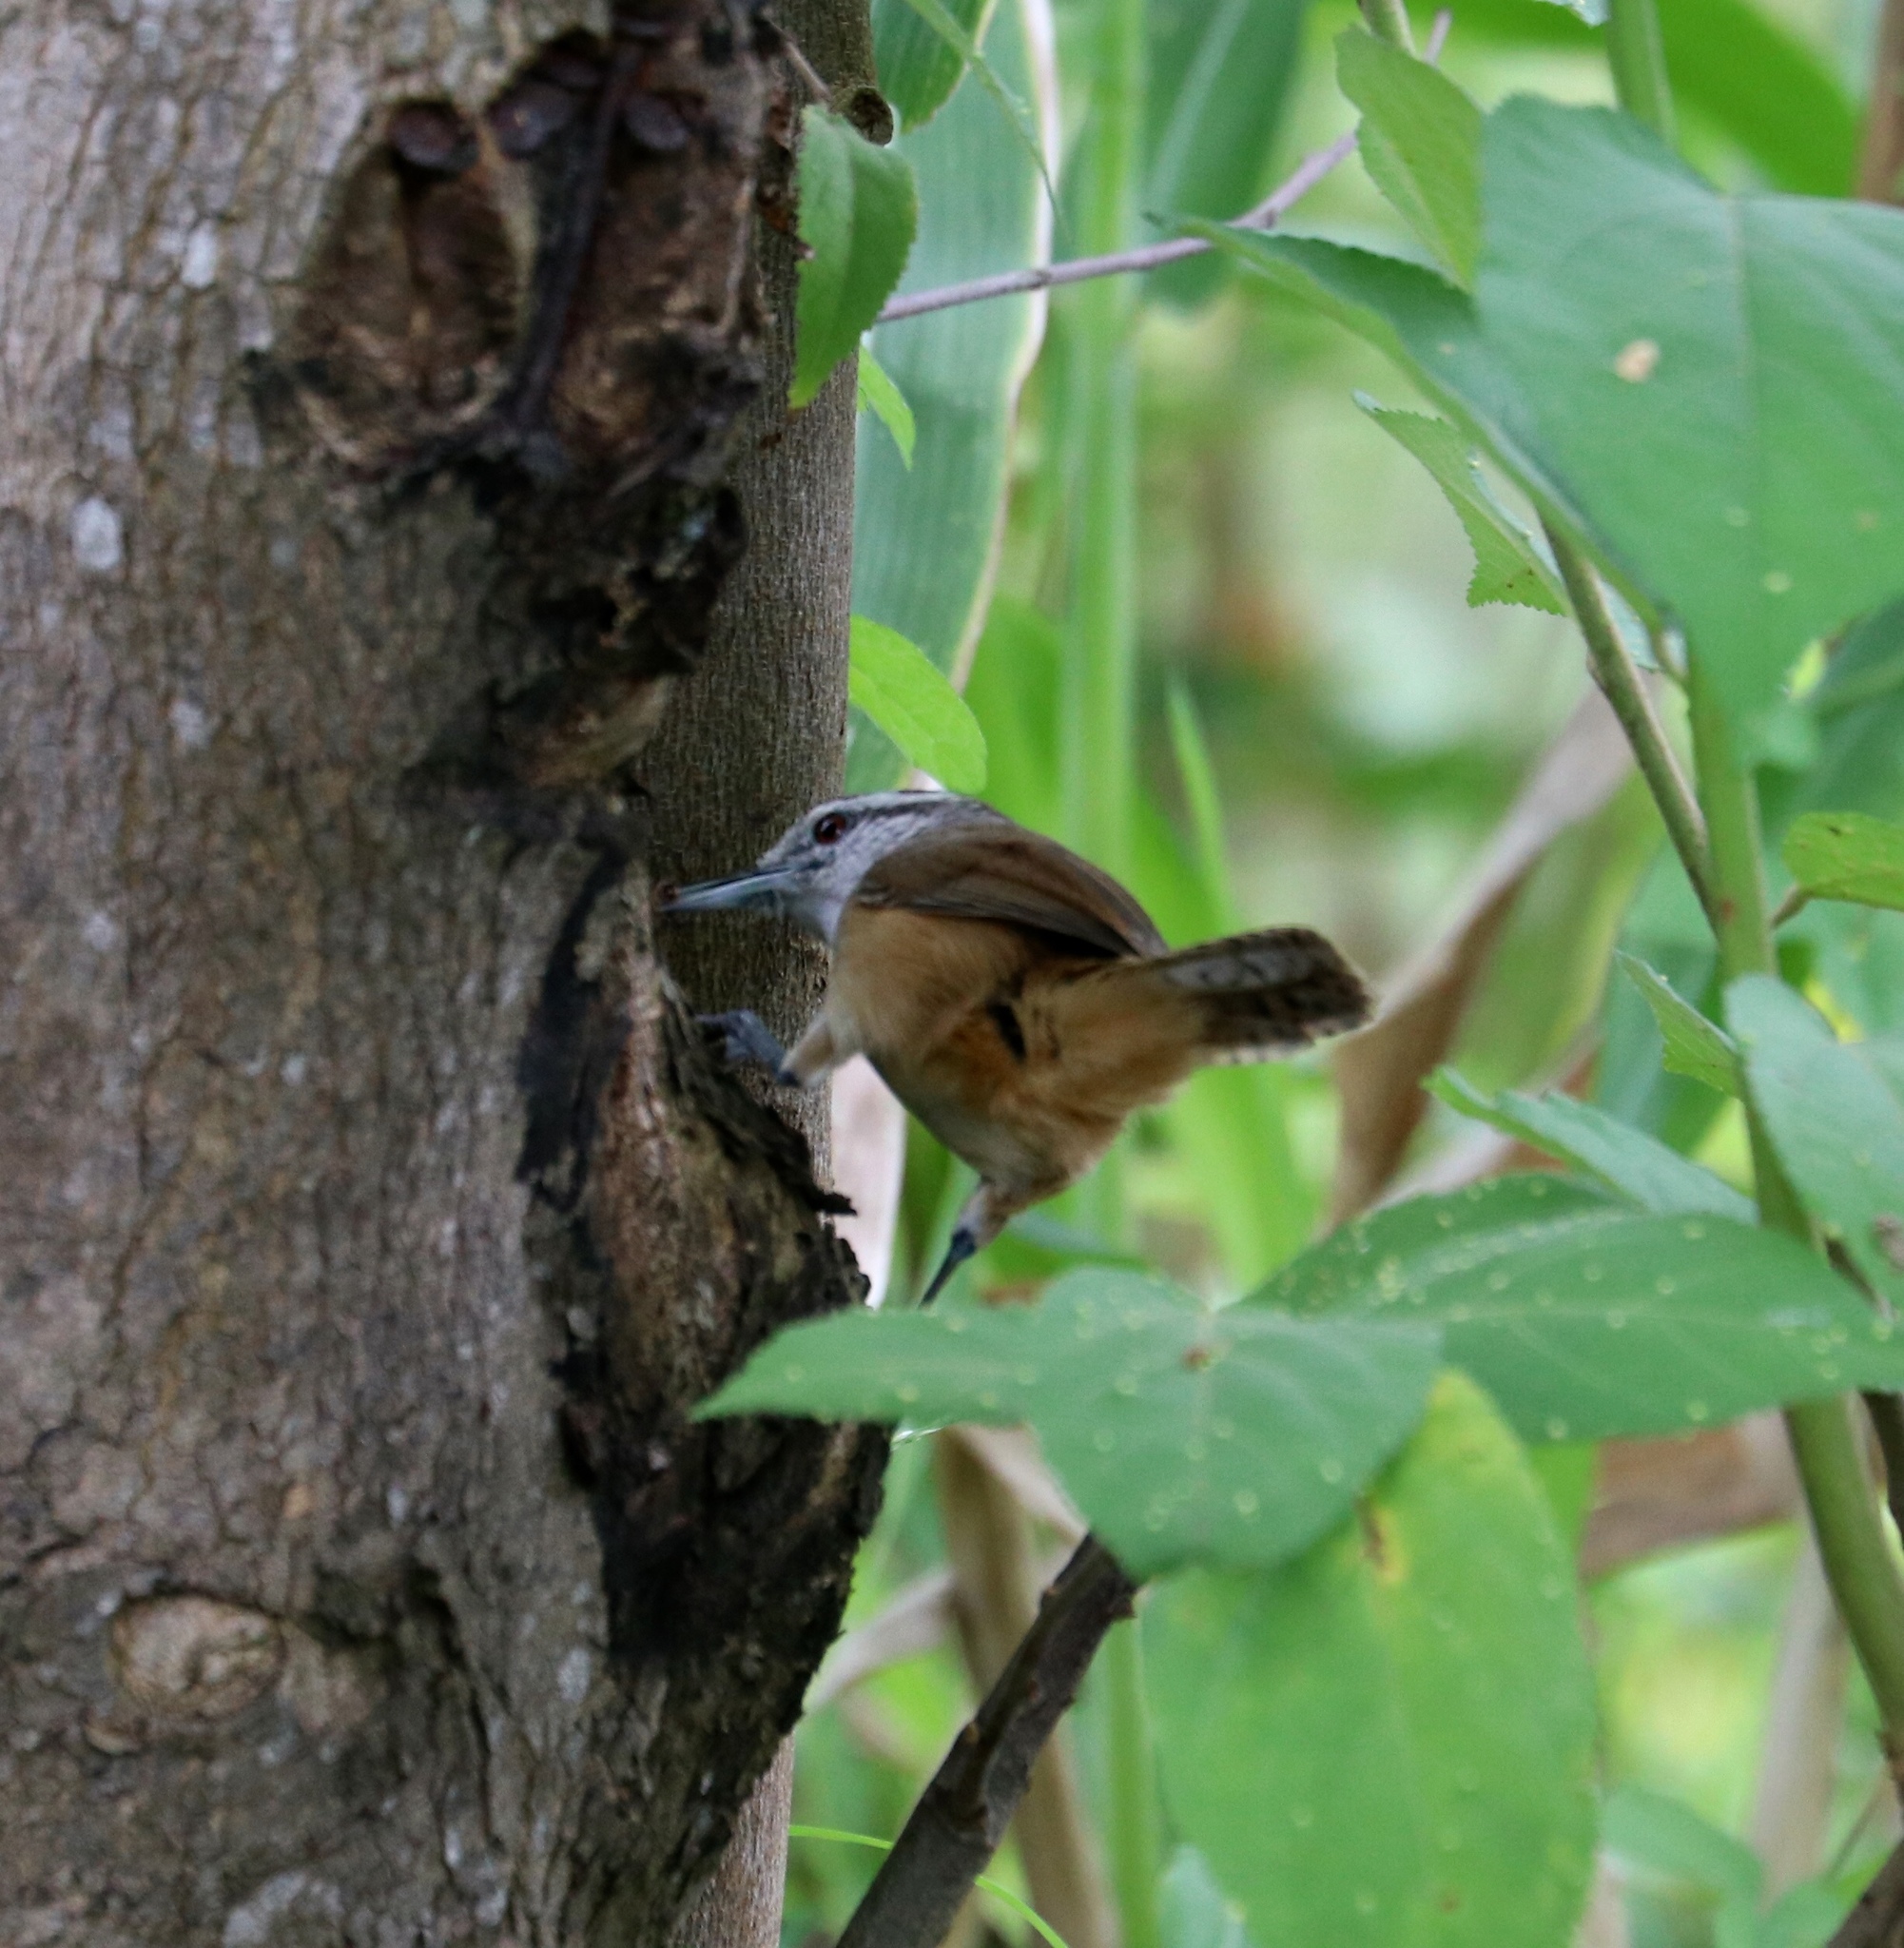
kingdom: Animalia
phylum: Chordata
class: Aves
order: Passeriformes
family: Troglodytidae
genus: Cantorchilus
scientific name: Cantorchilus leucotis
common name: Buff-breasted wren
